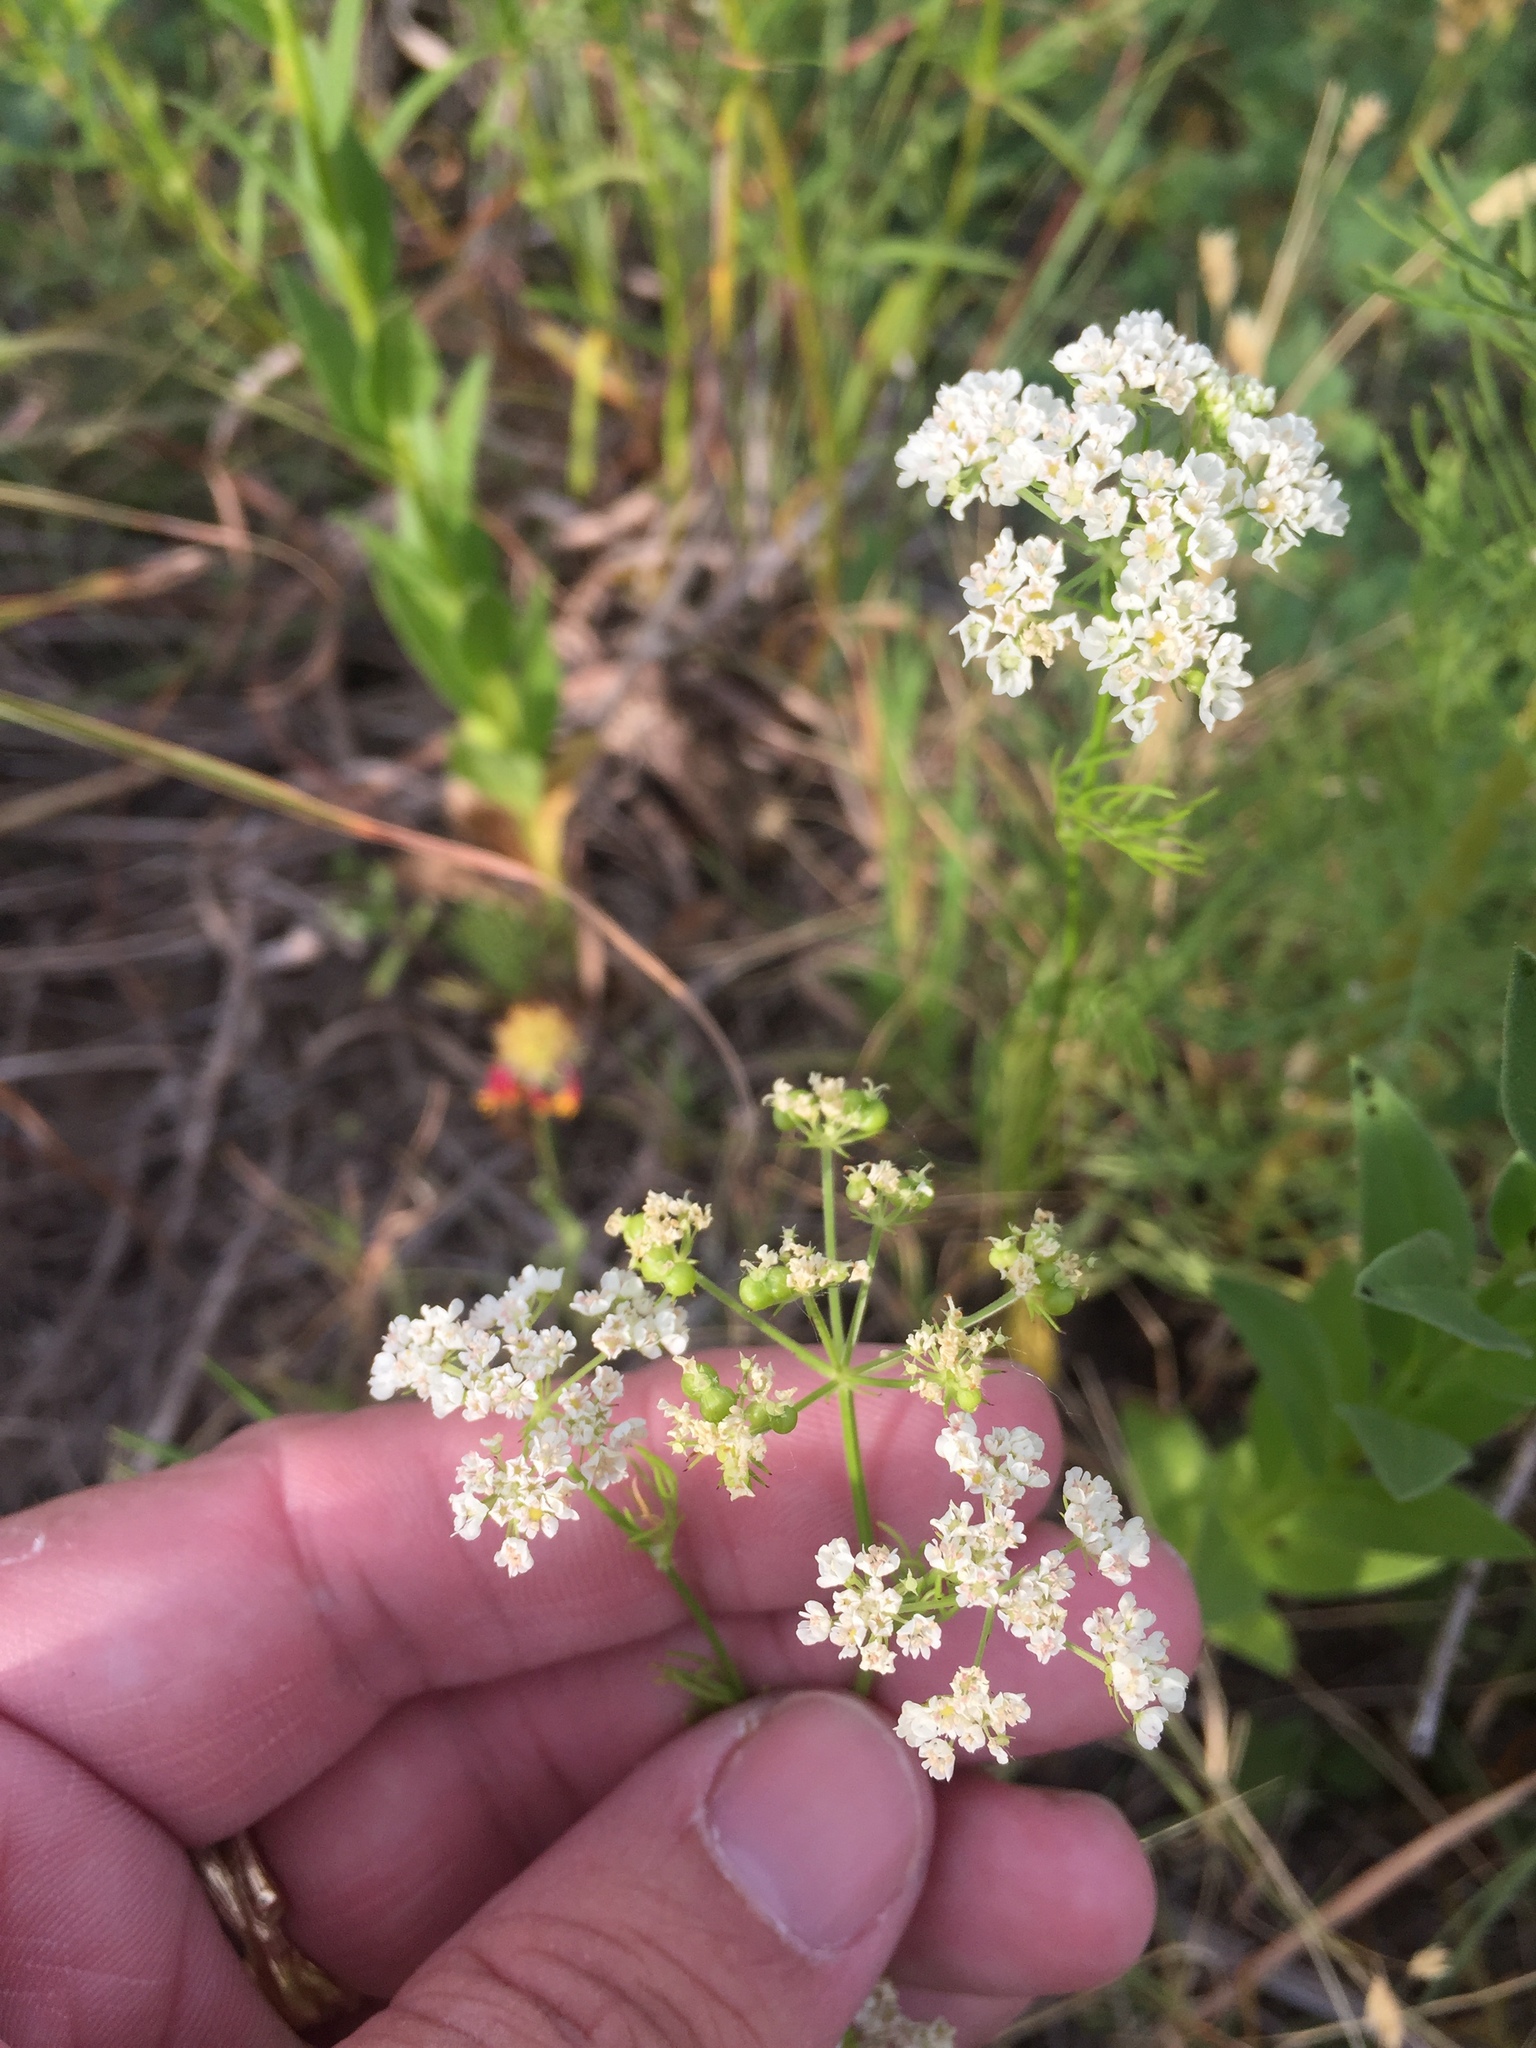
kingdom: Plantae
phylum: Tracheophyta
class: Magnoliopsida
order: Apiales
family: Apiaceae
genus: Atrema
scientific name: Atrema americanum
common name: Prairie-bishop
